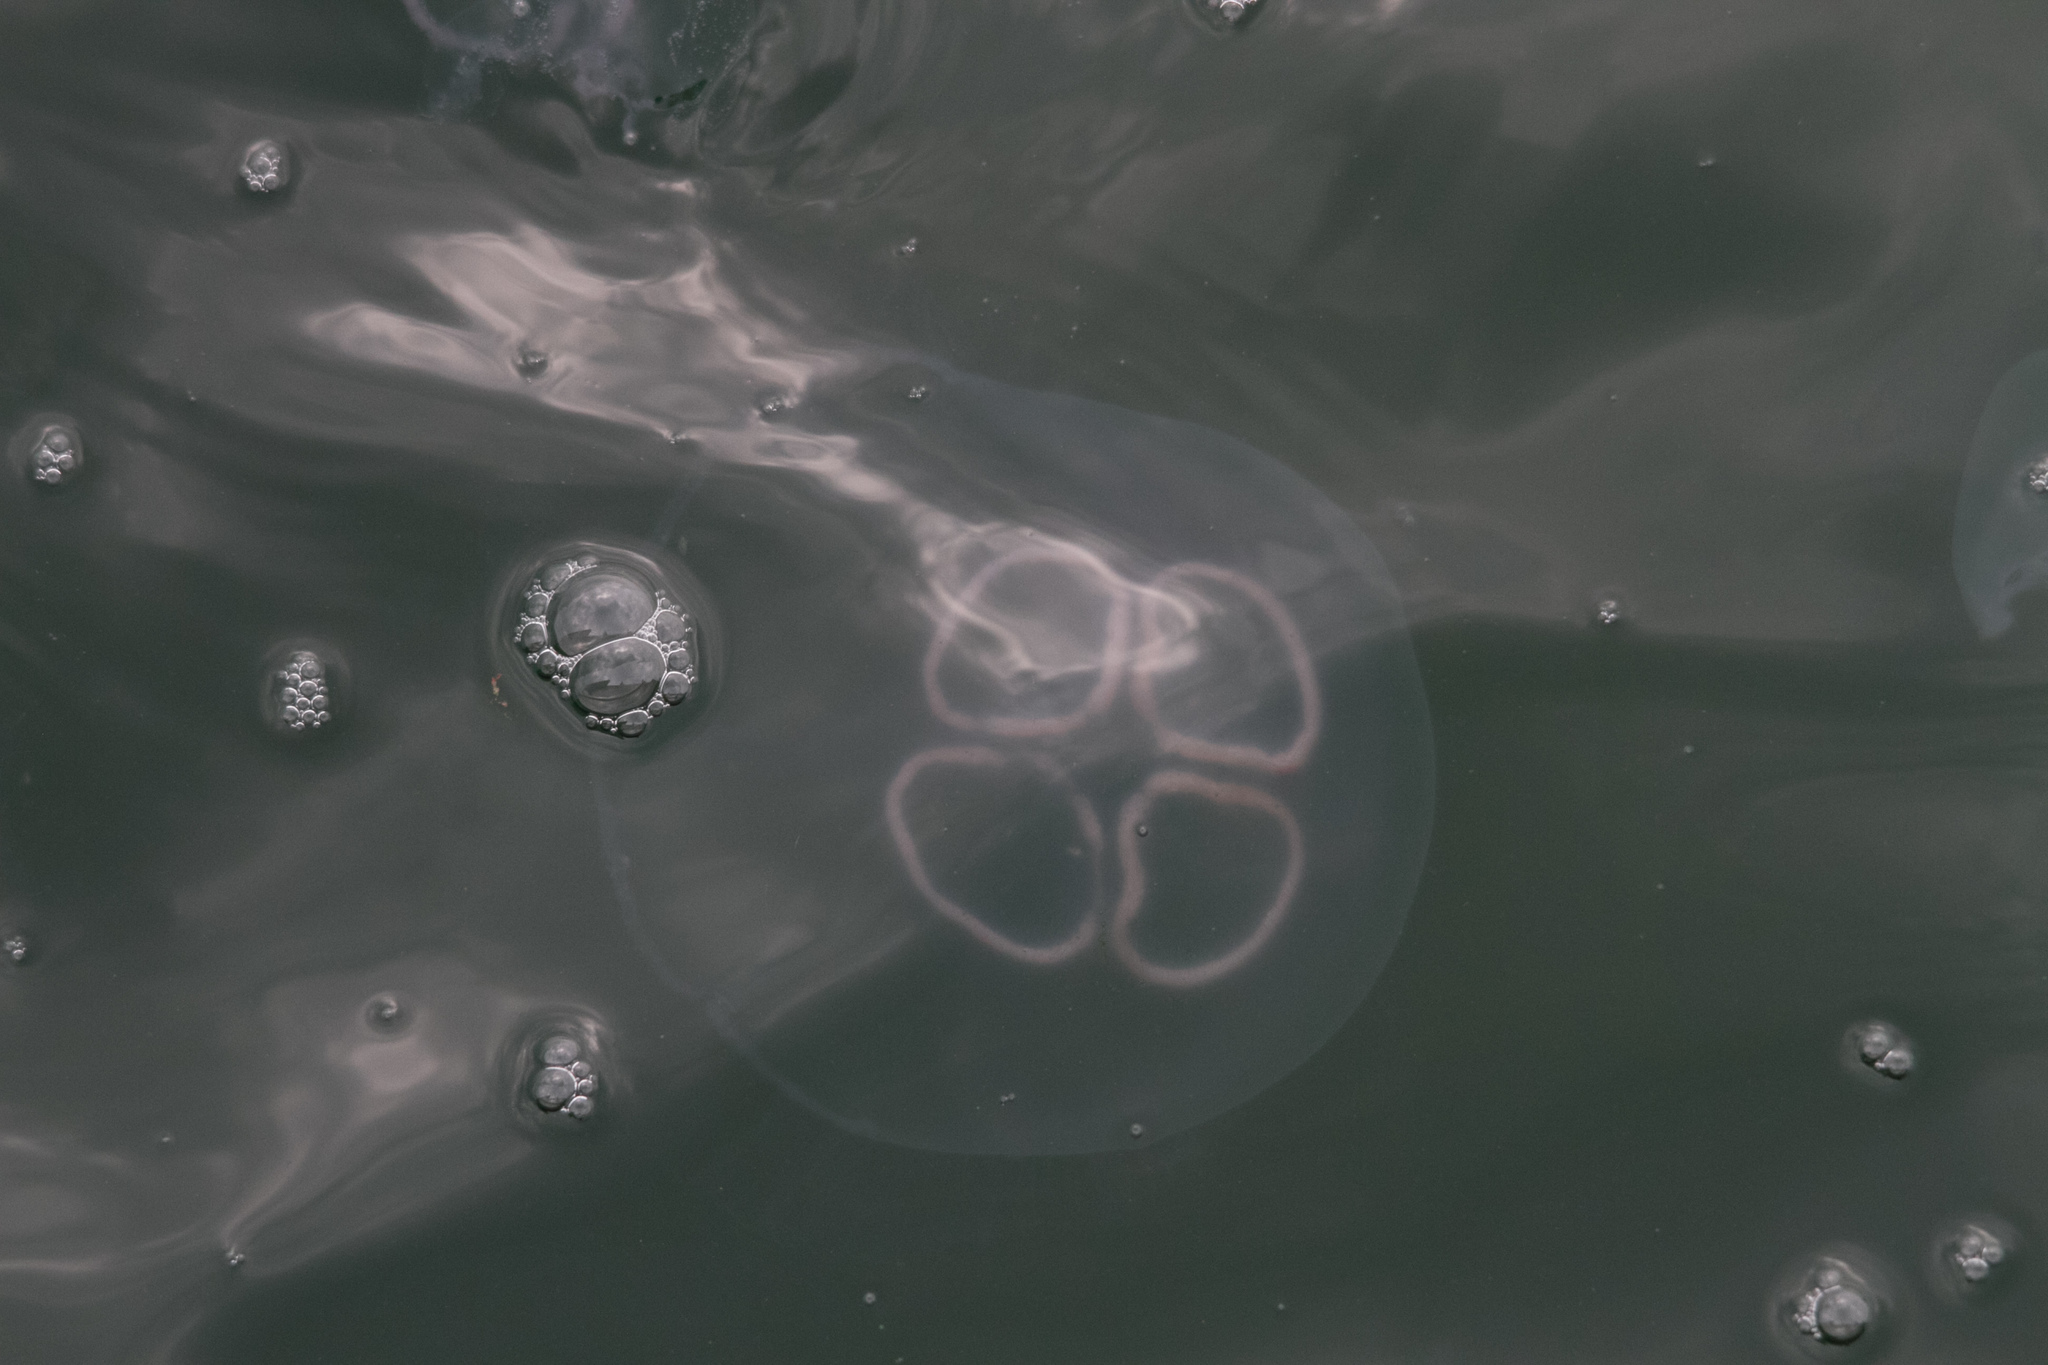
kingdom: Animalia
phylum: Cnidaria
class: Scyphozoa
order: Semaeostomeae
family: Ulmaridae
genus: Aurelia
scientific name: Aurelia aurita
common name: Moon jellyfish
